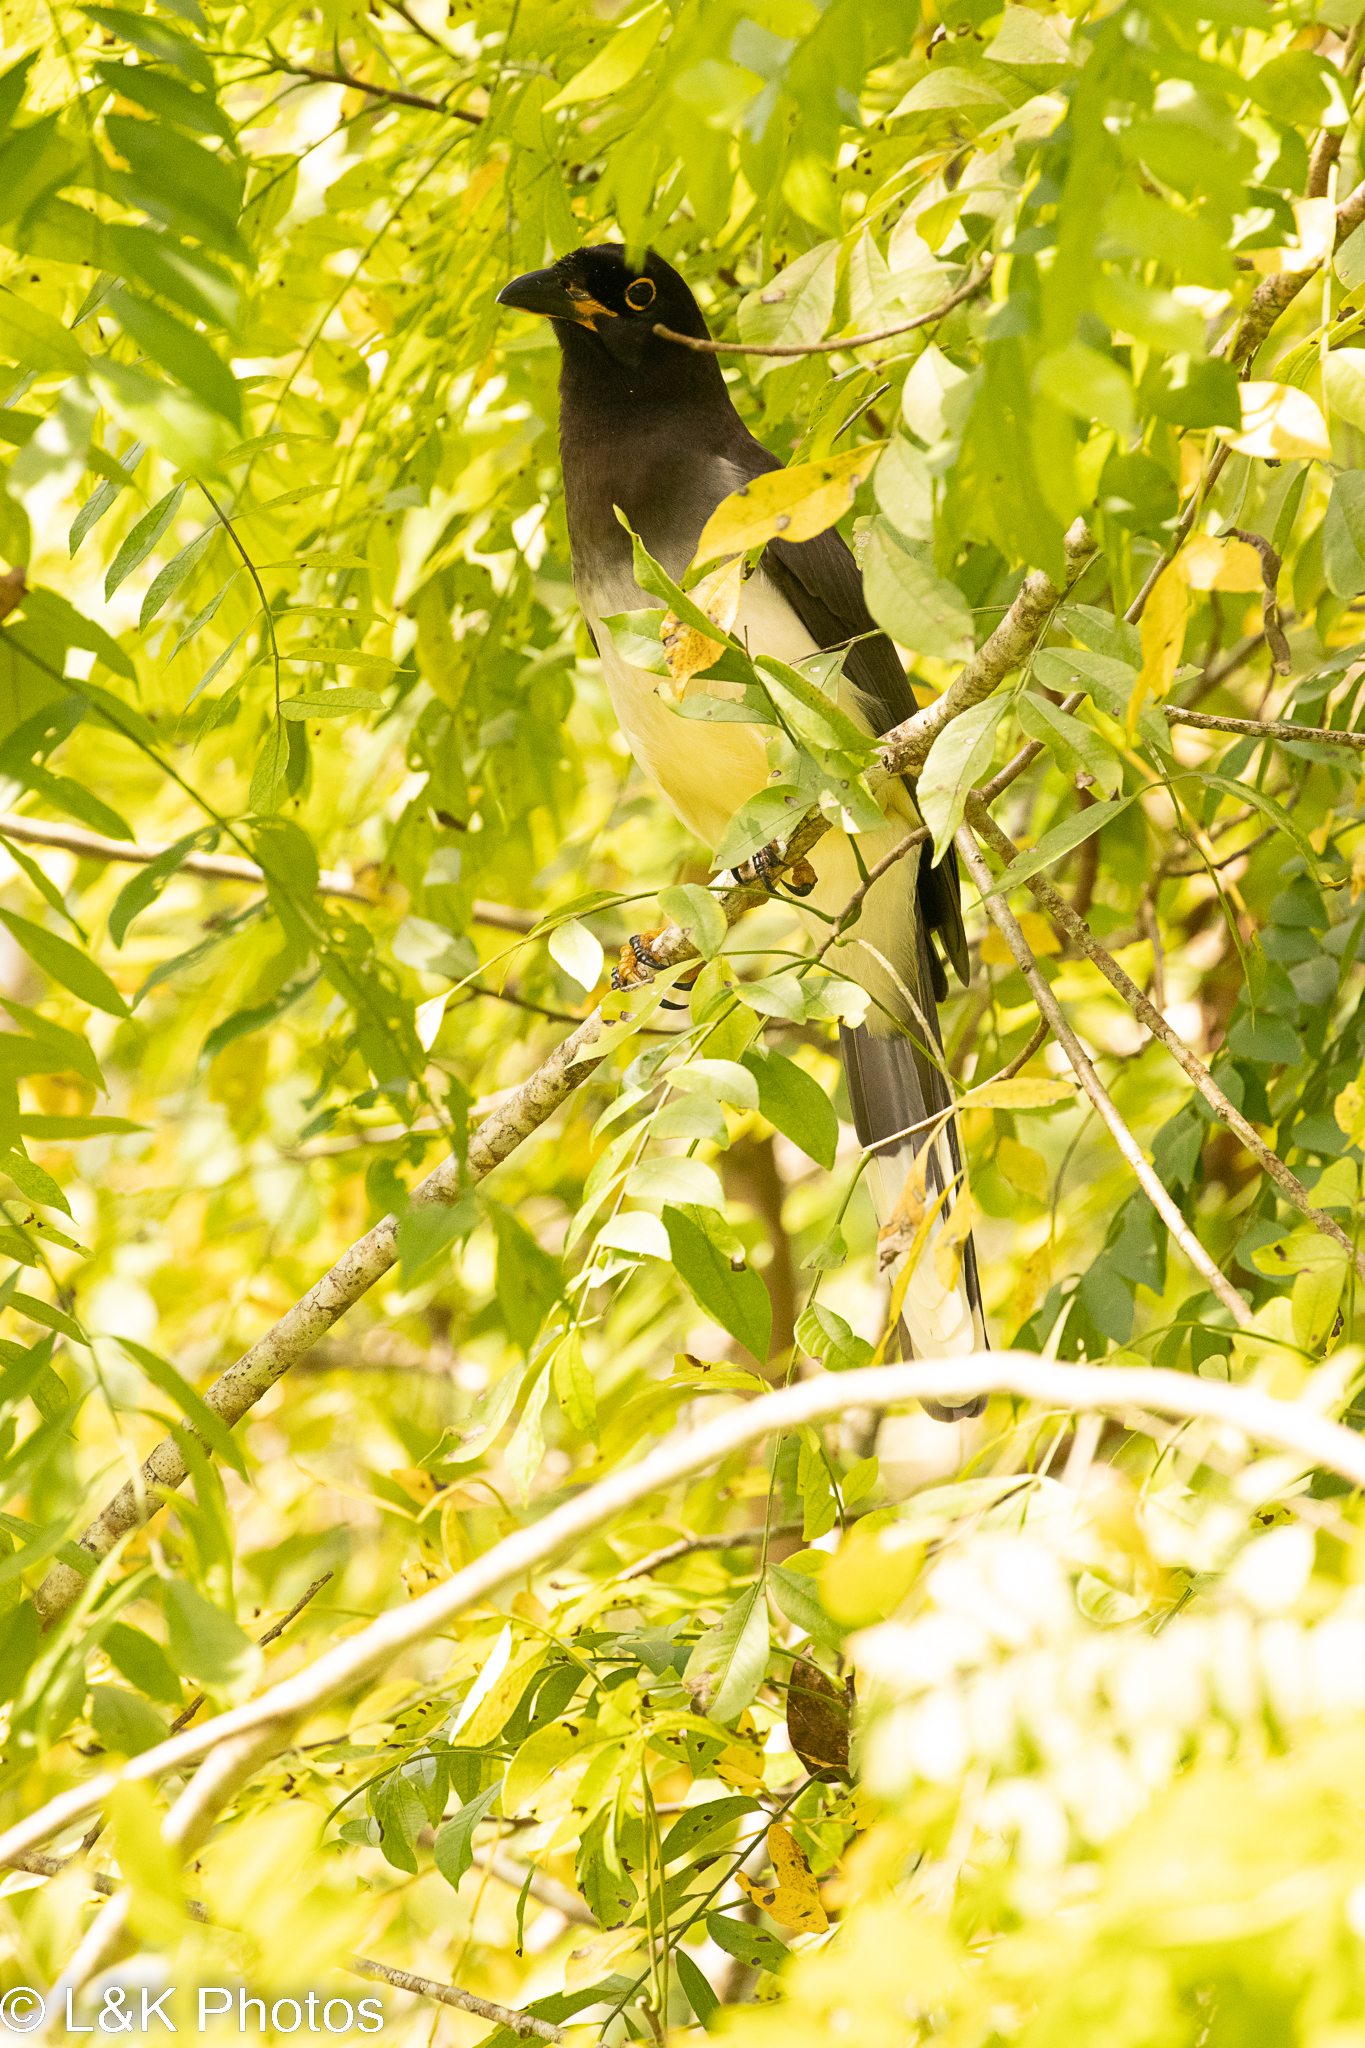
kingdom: Animalia
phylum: Chordata
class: Aves
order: Passeriformes
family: Corvidae
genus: Psilorhinus
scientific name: Psilorhinus morio
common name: Brown jay
